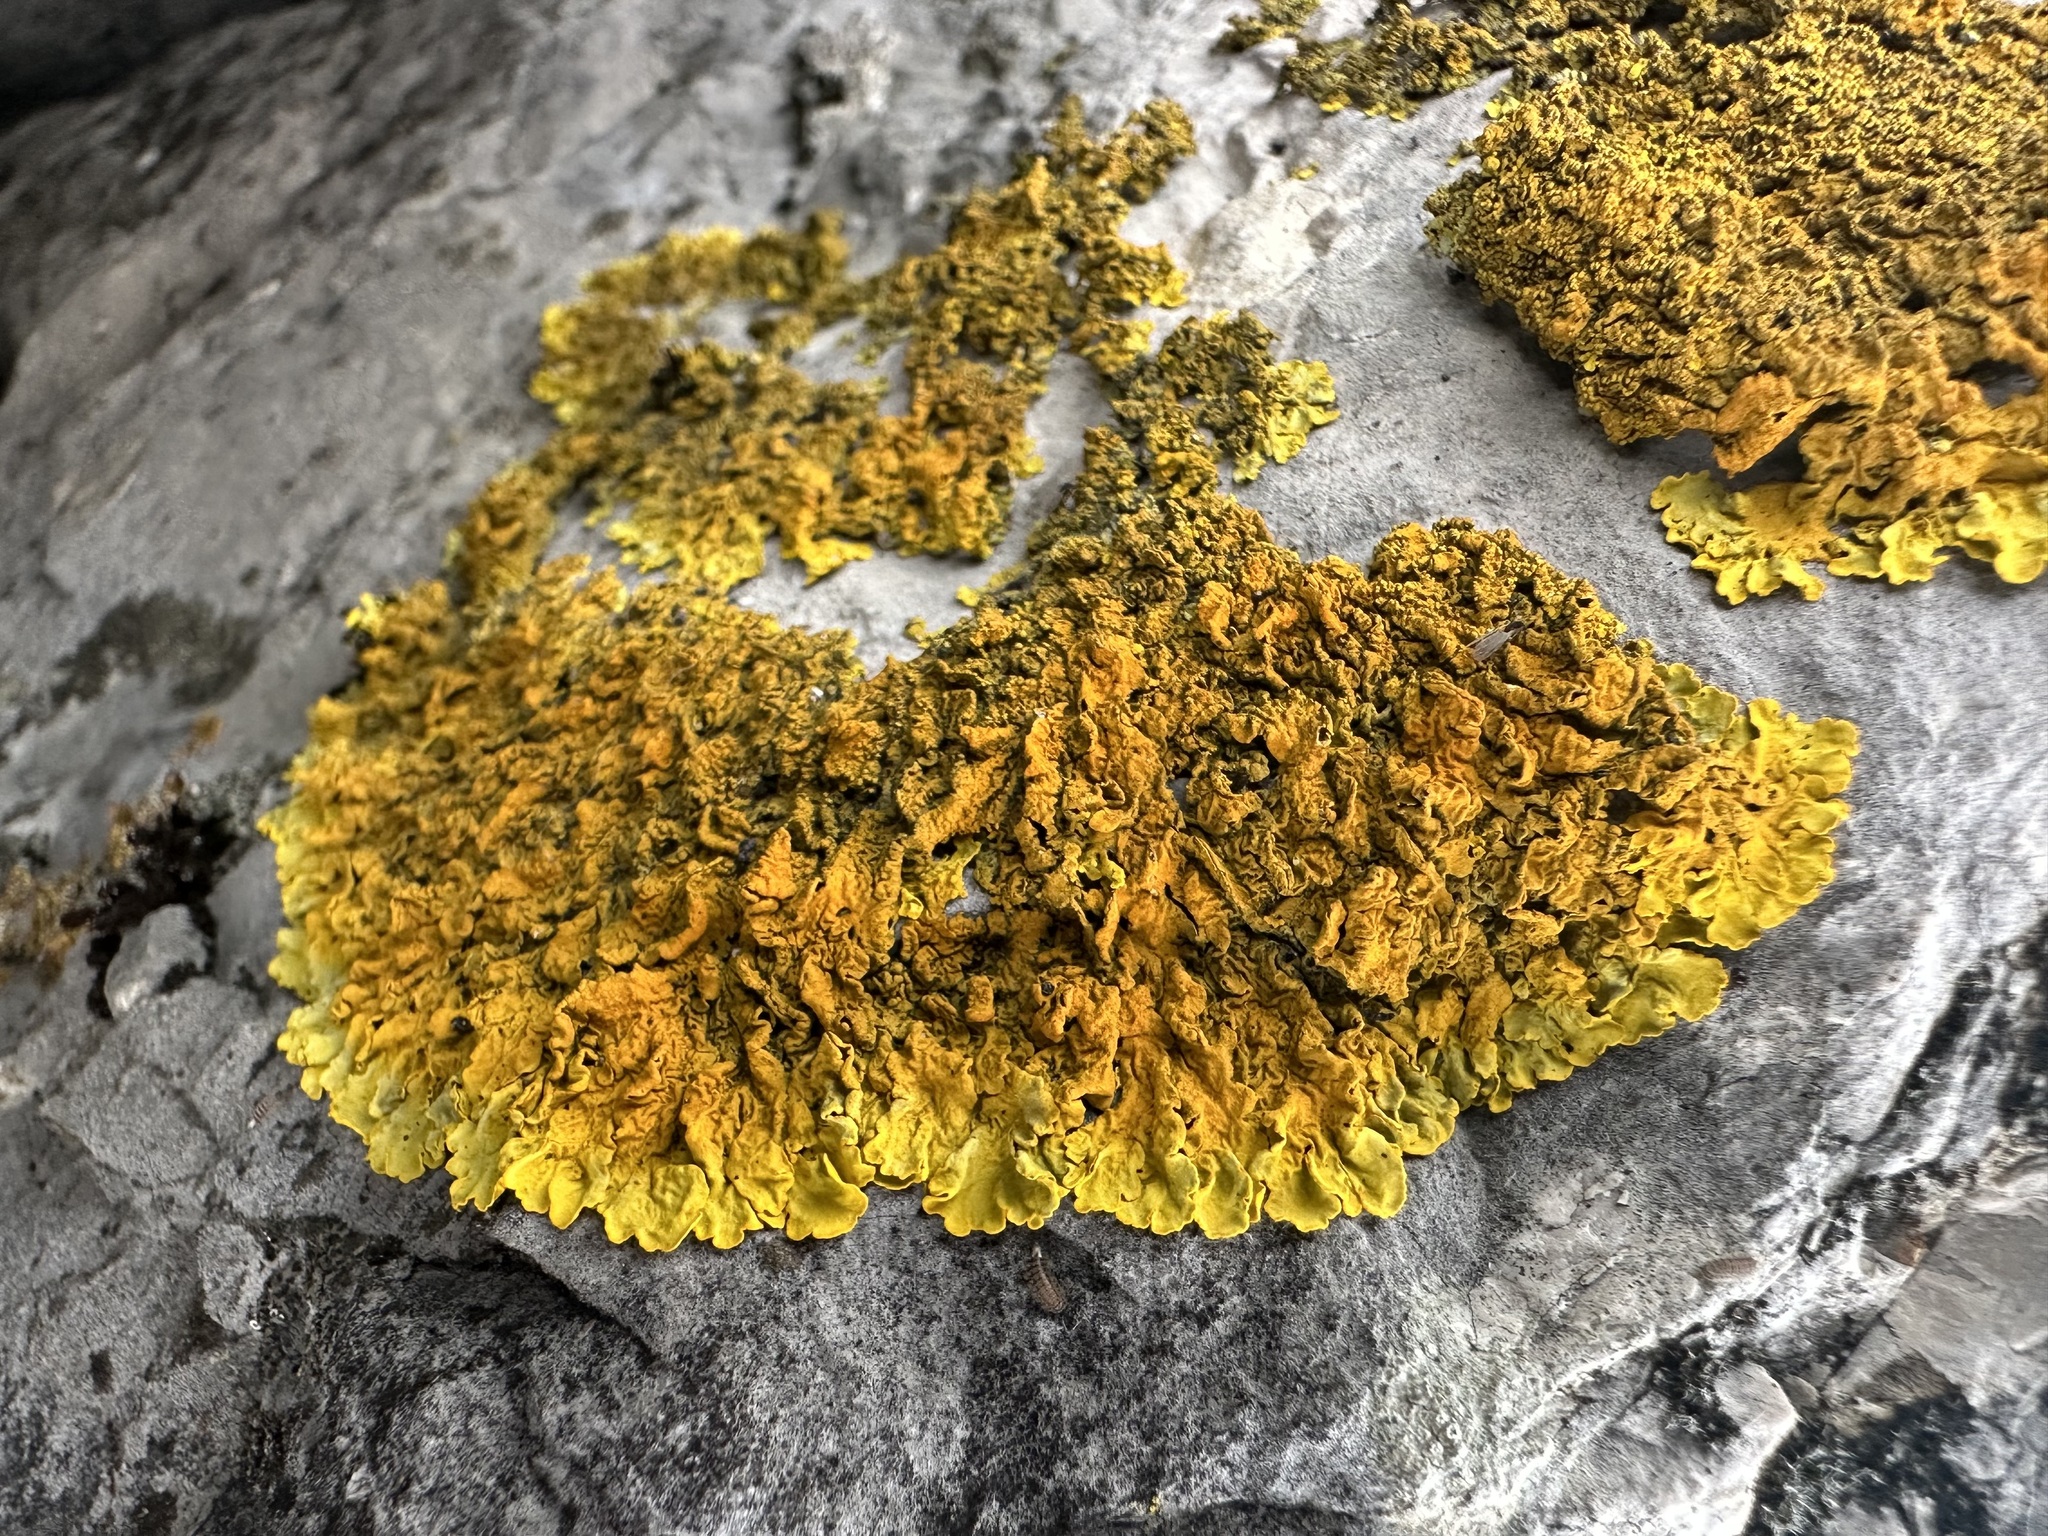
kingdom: Fungi
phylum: Ascomycota
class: Lecanoromycetes
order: Teloschistales
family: Teloschistaceae
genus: Xanthoria
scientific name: Xanthoria calcicola
